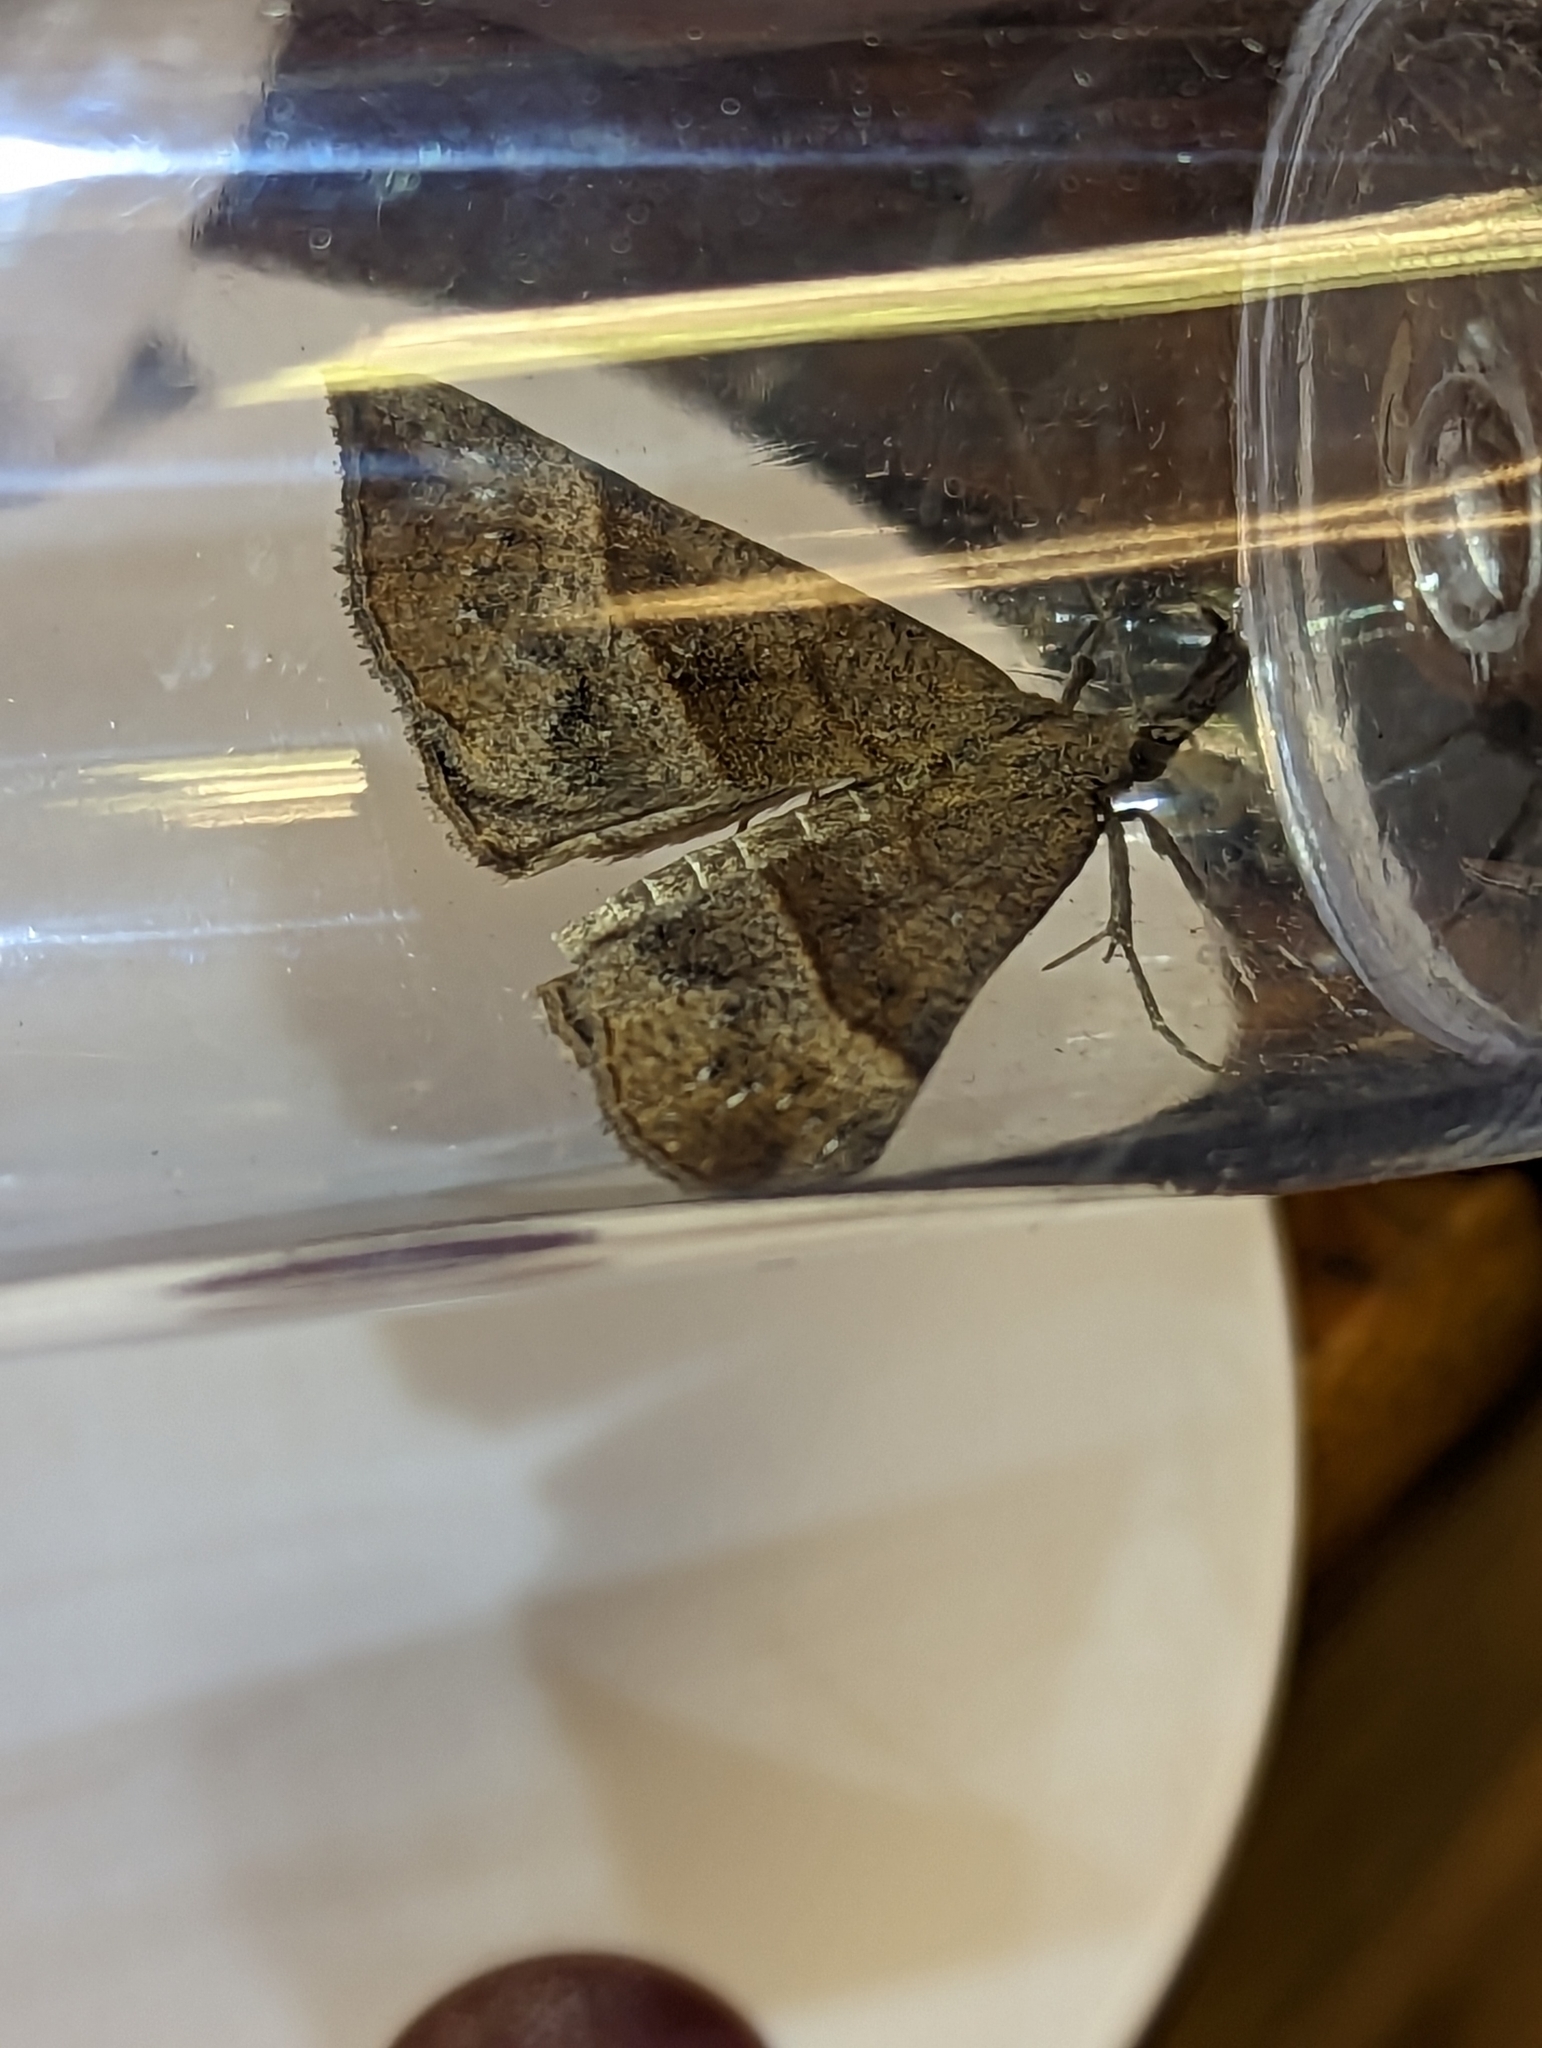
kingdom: Animalia
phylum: Arthropoda
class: Insecta
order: Lepidoptera
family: Erebidae
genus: Hypena
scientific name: Hypena proboscidalis
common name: Snout
